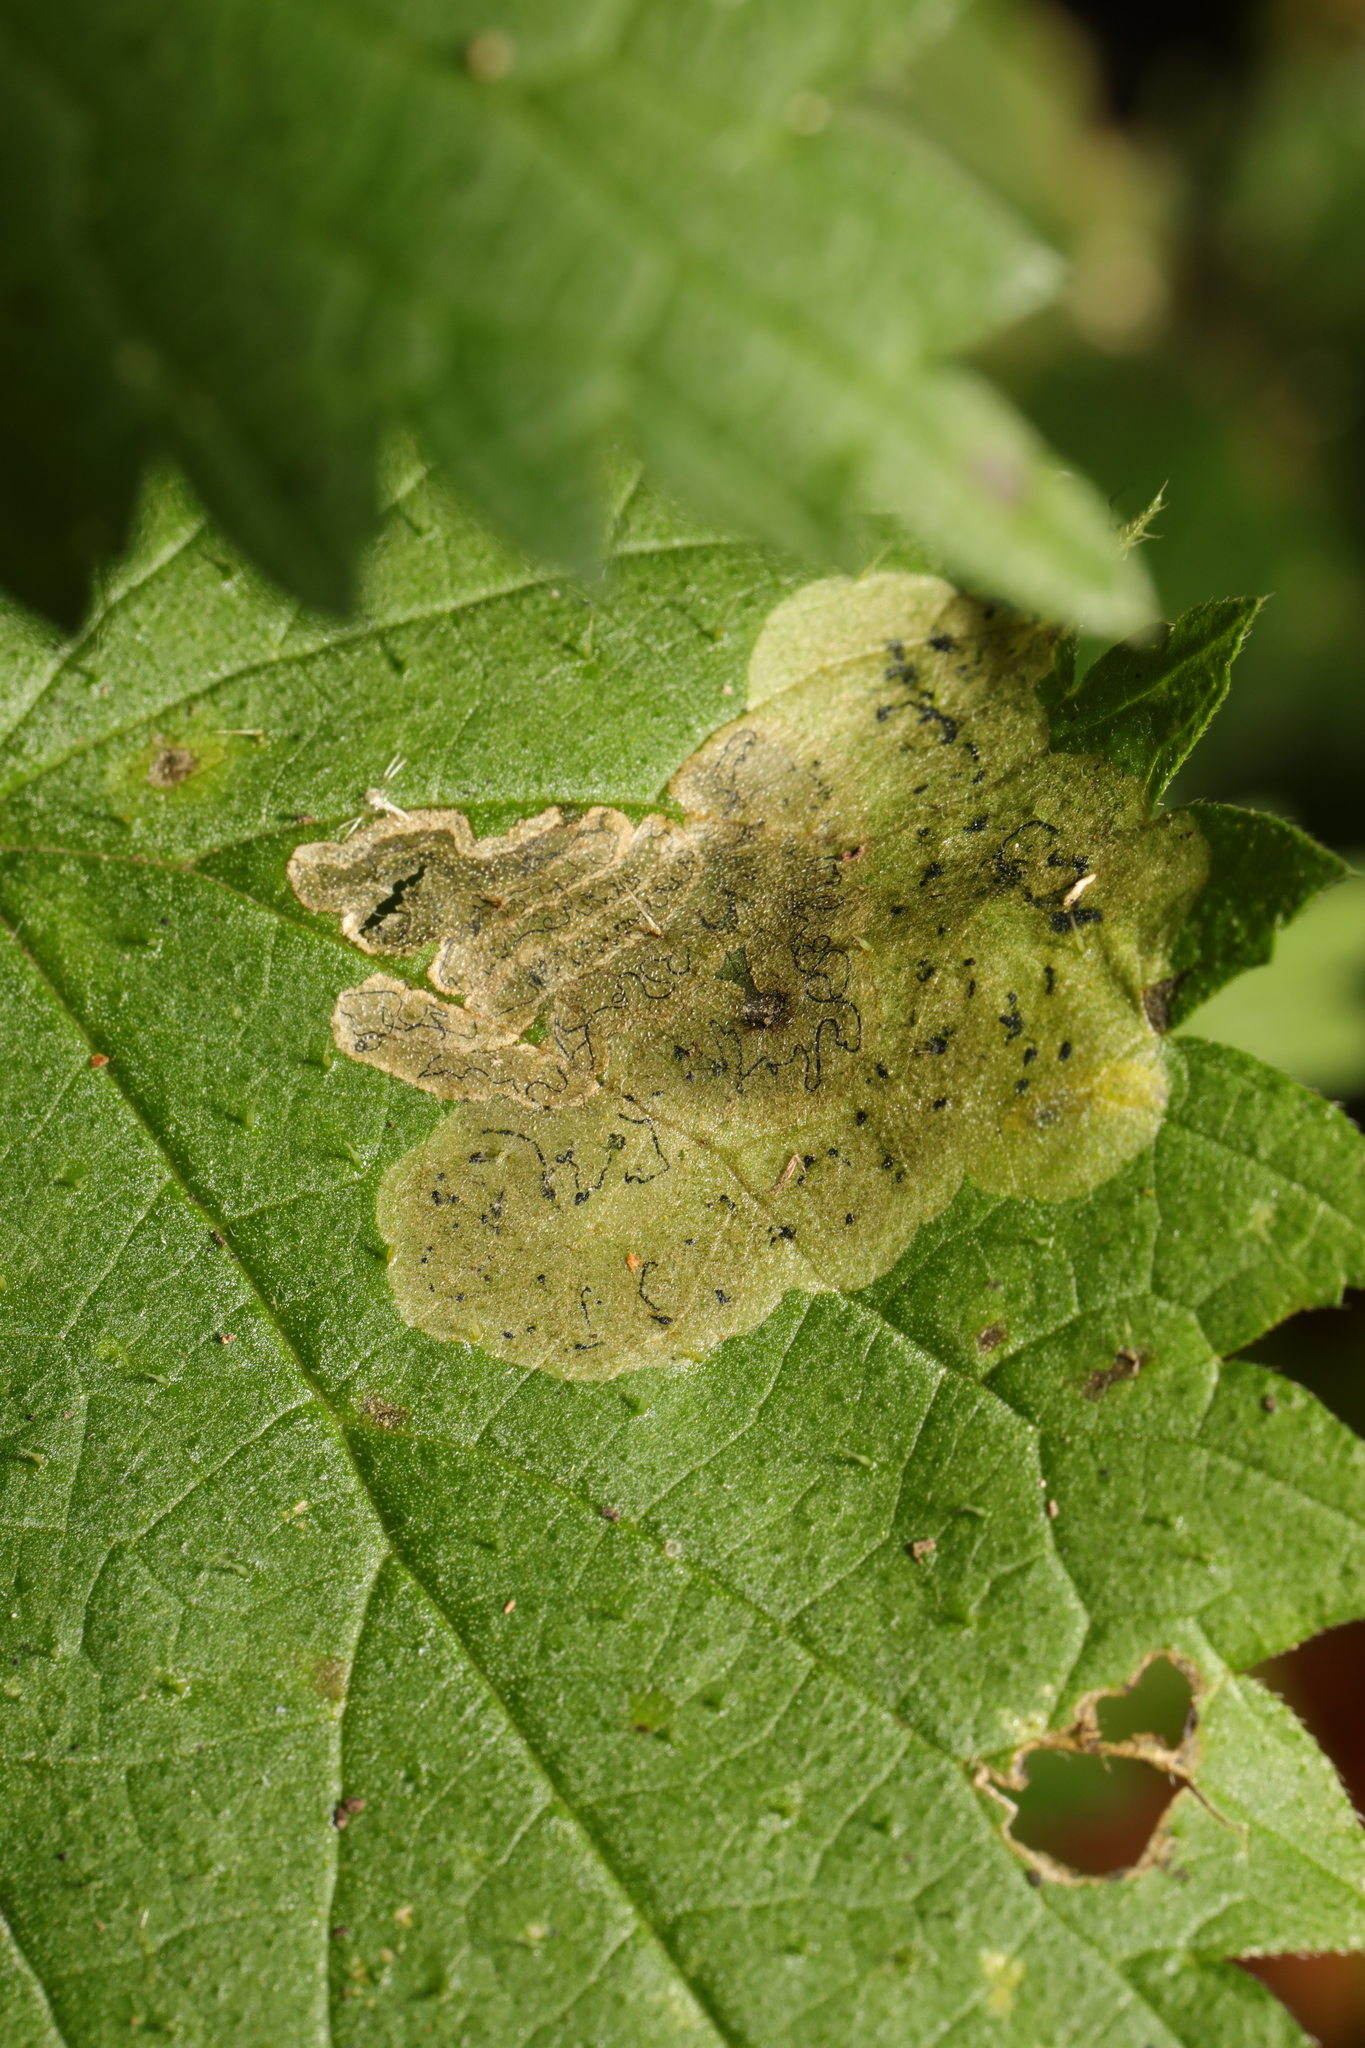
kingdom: Animalia
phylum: Arthropoda
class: Insecta
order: Diptera
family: Agromyzidae
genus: Agromyza
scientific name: Agromyza anthracina
